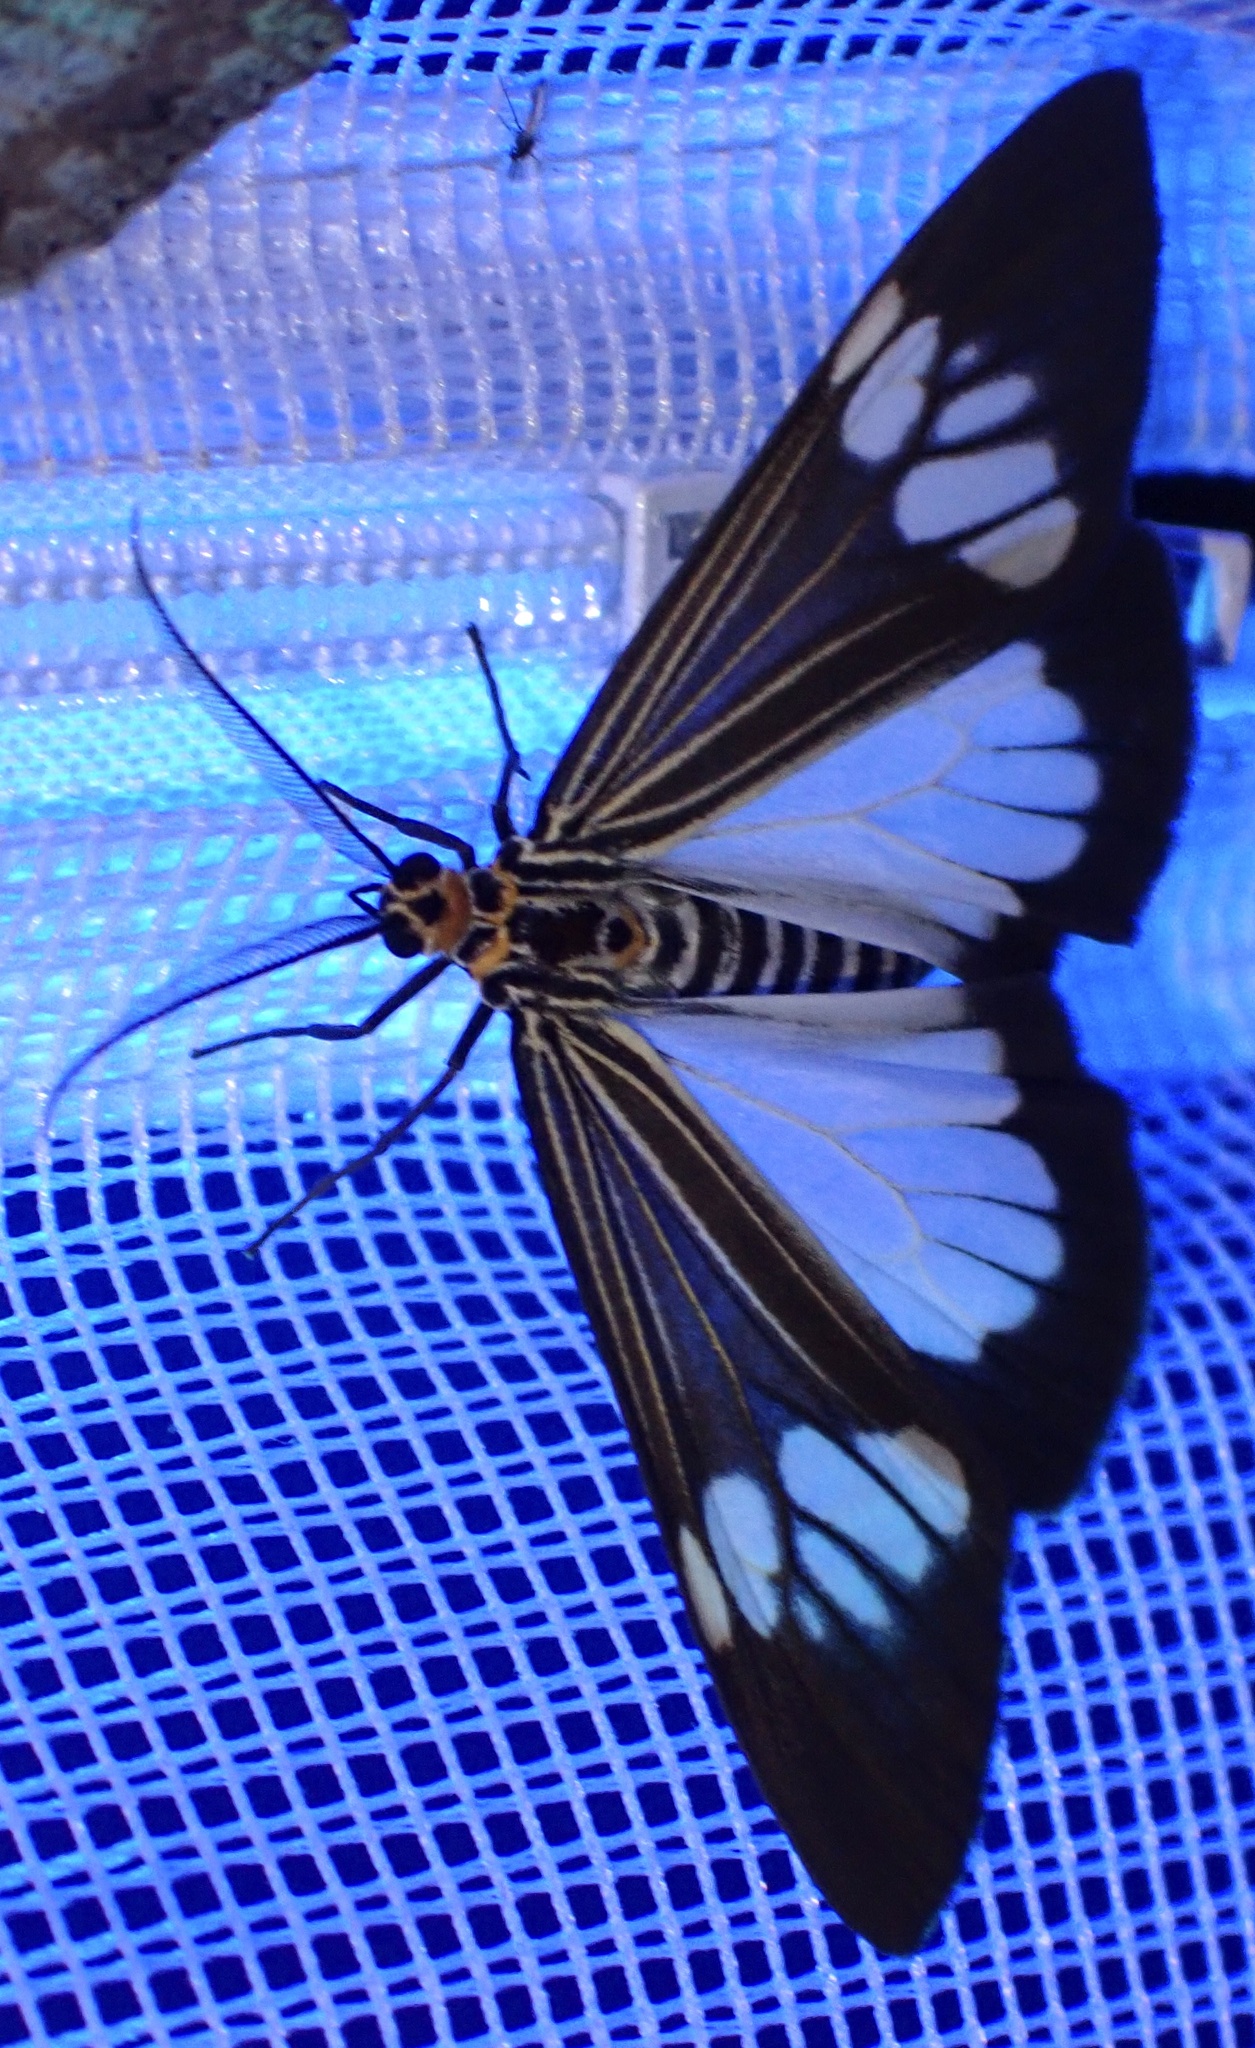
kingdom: Animalia
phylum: Arthropoda
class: Insecta
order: Lepidoptera
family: Erebidae
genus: Nyctemera
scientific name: Nyctemera baulus
